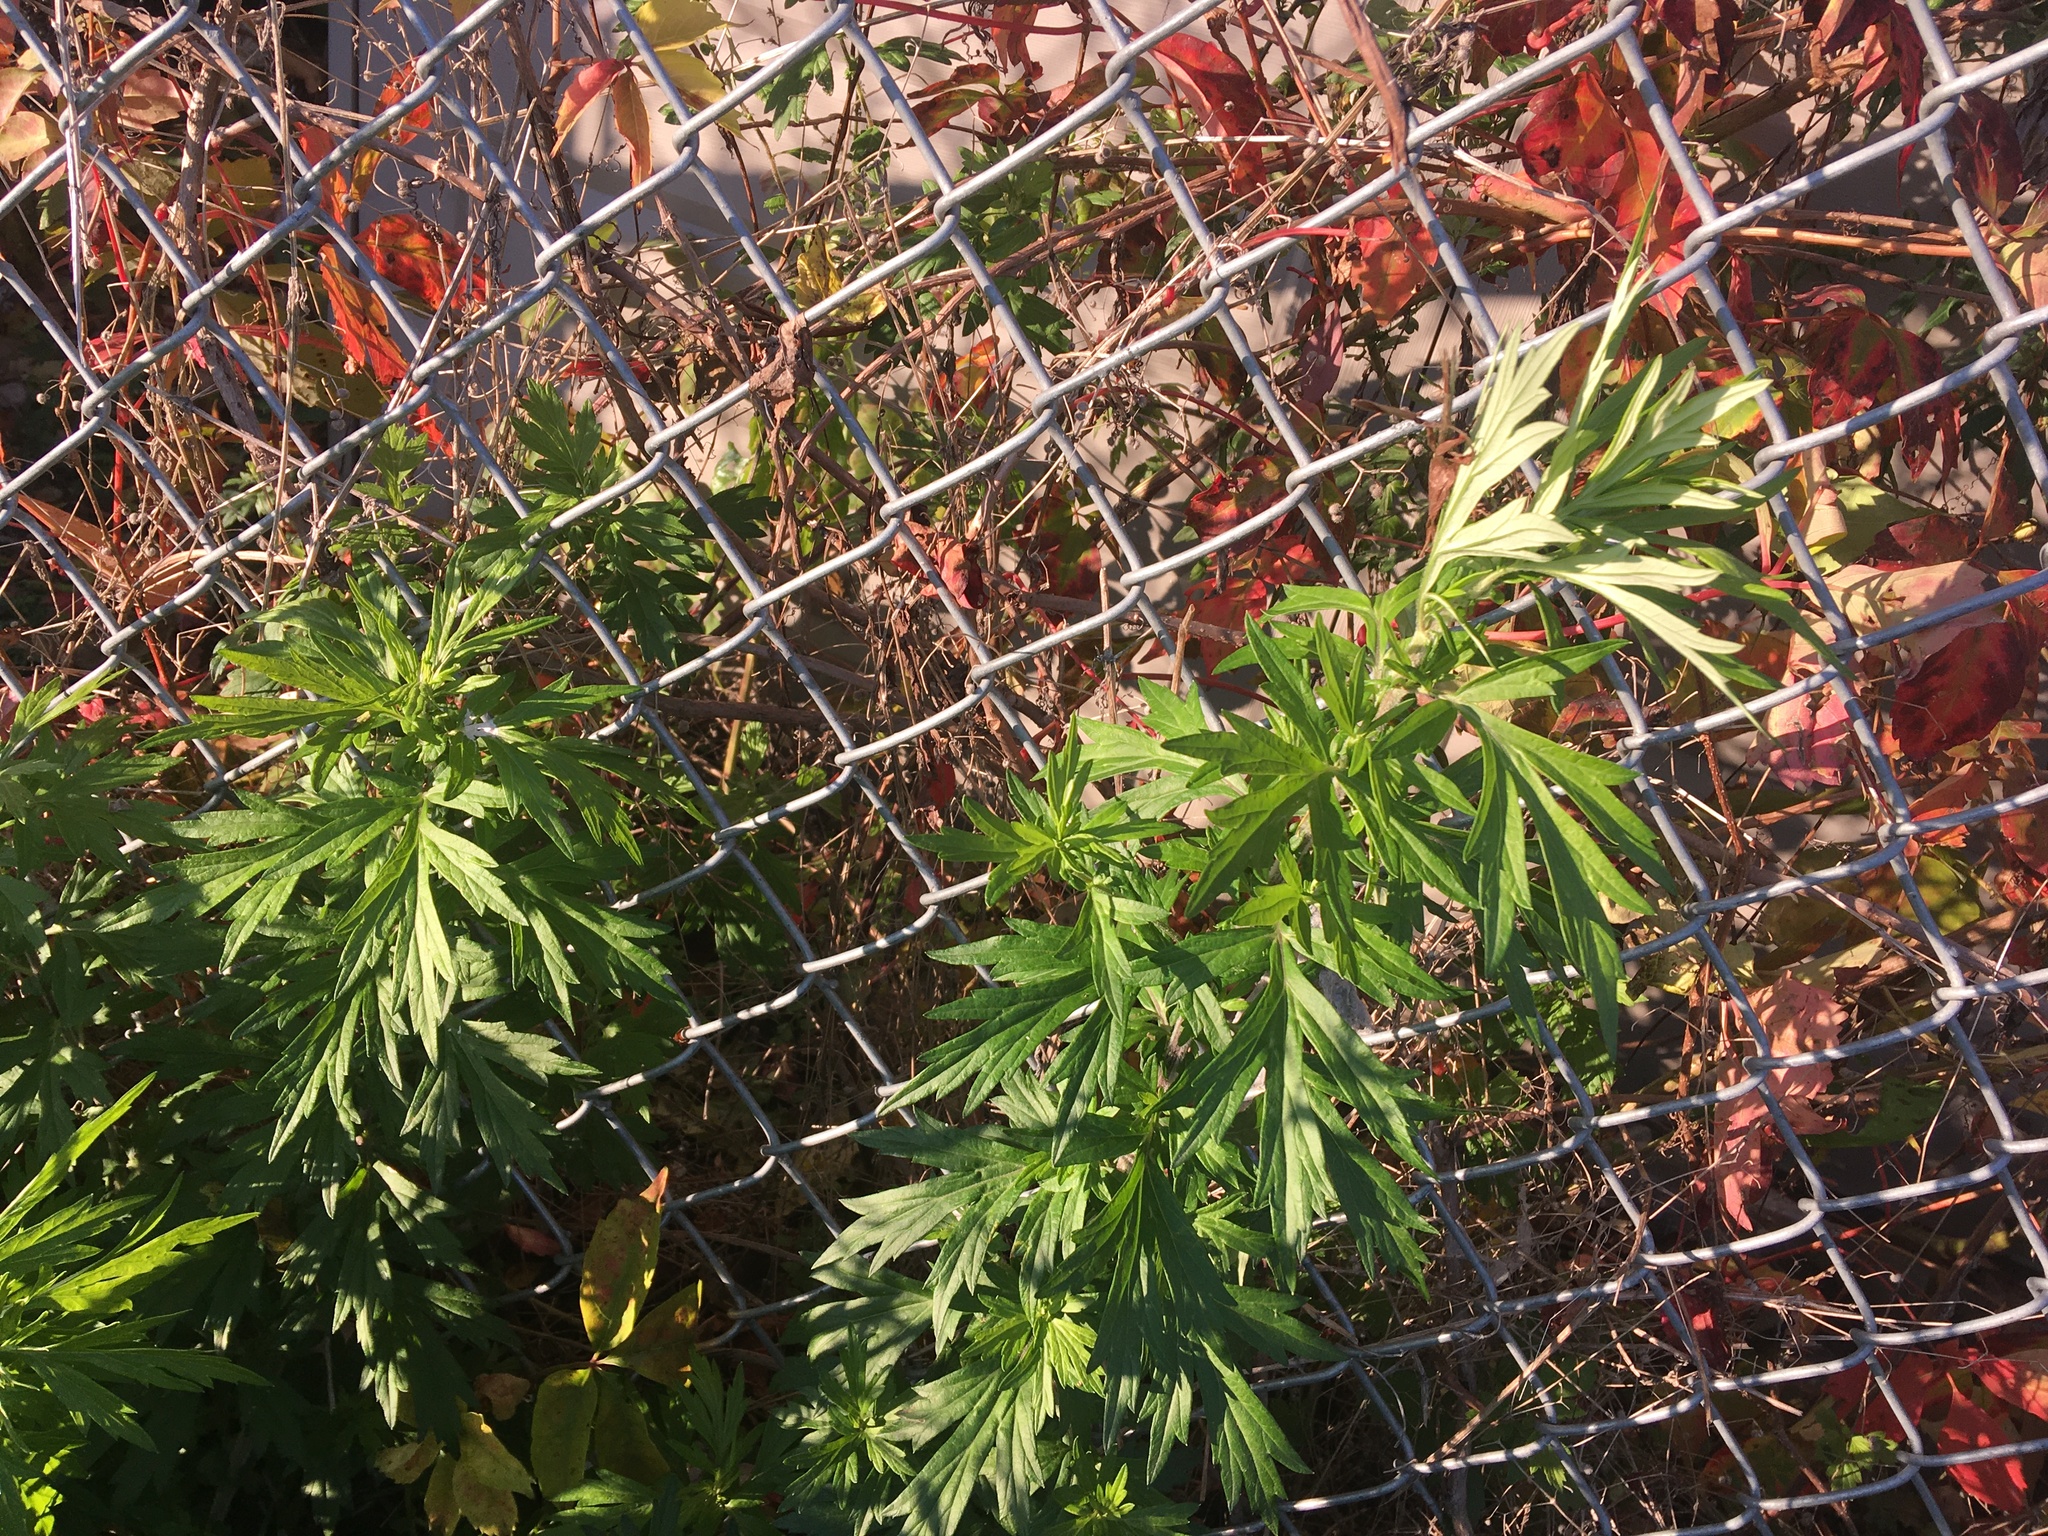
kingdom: Plantae
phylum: Tracheophyta
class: Magnoliopsida
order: Asterales
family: Asteraceae
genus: Artemisia
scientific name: Artemisia vulgaris
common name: Mugwort
